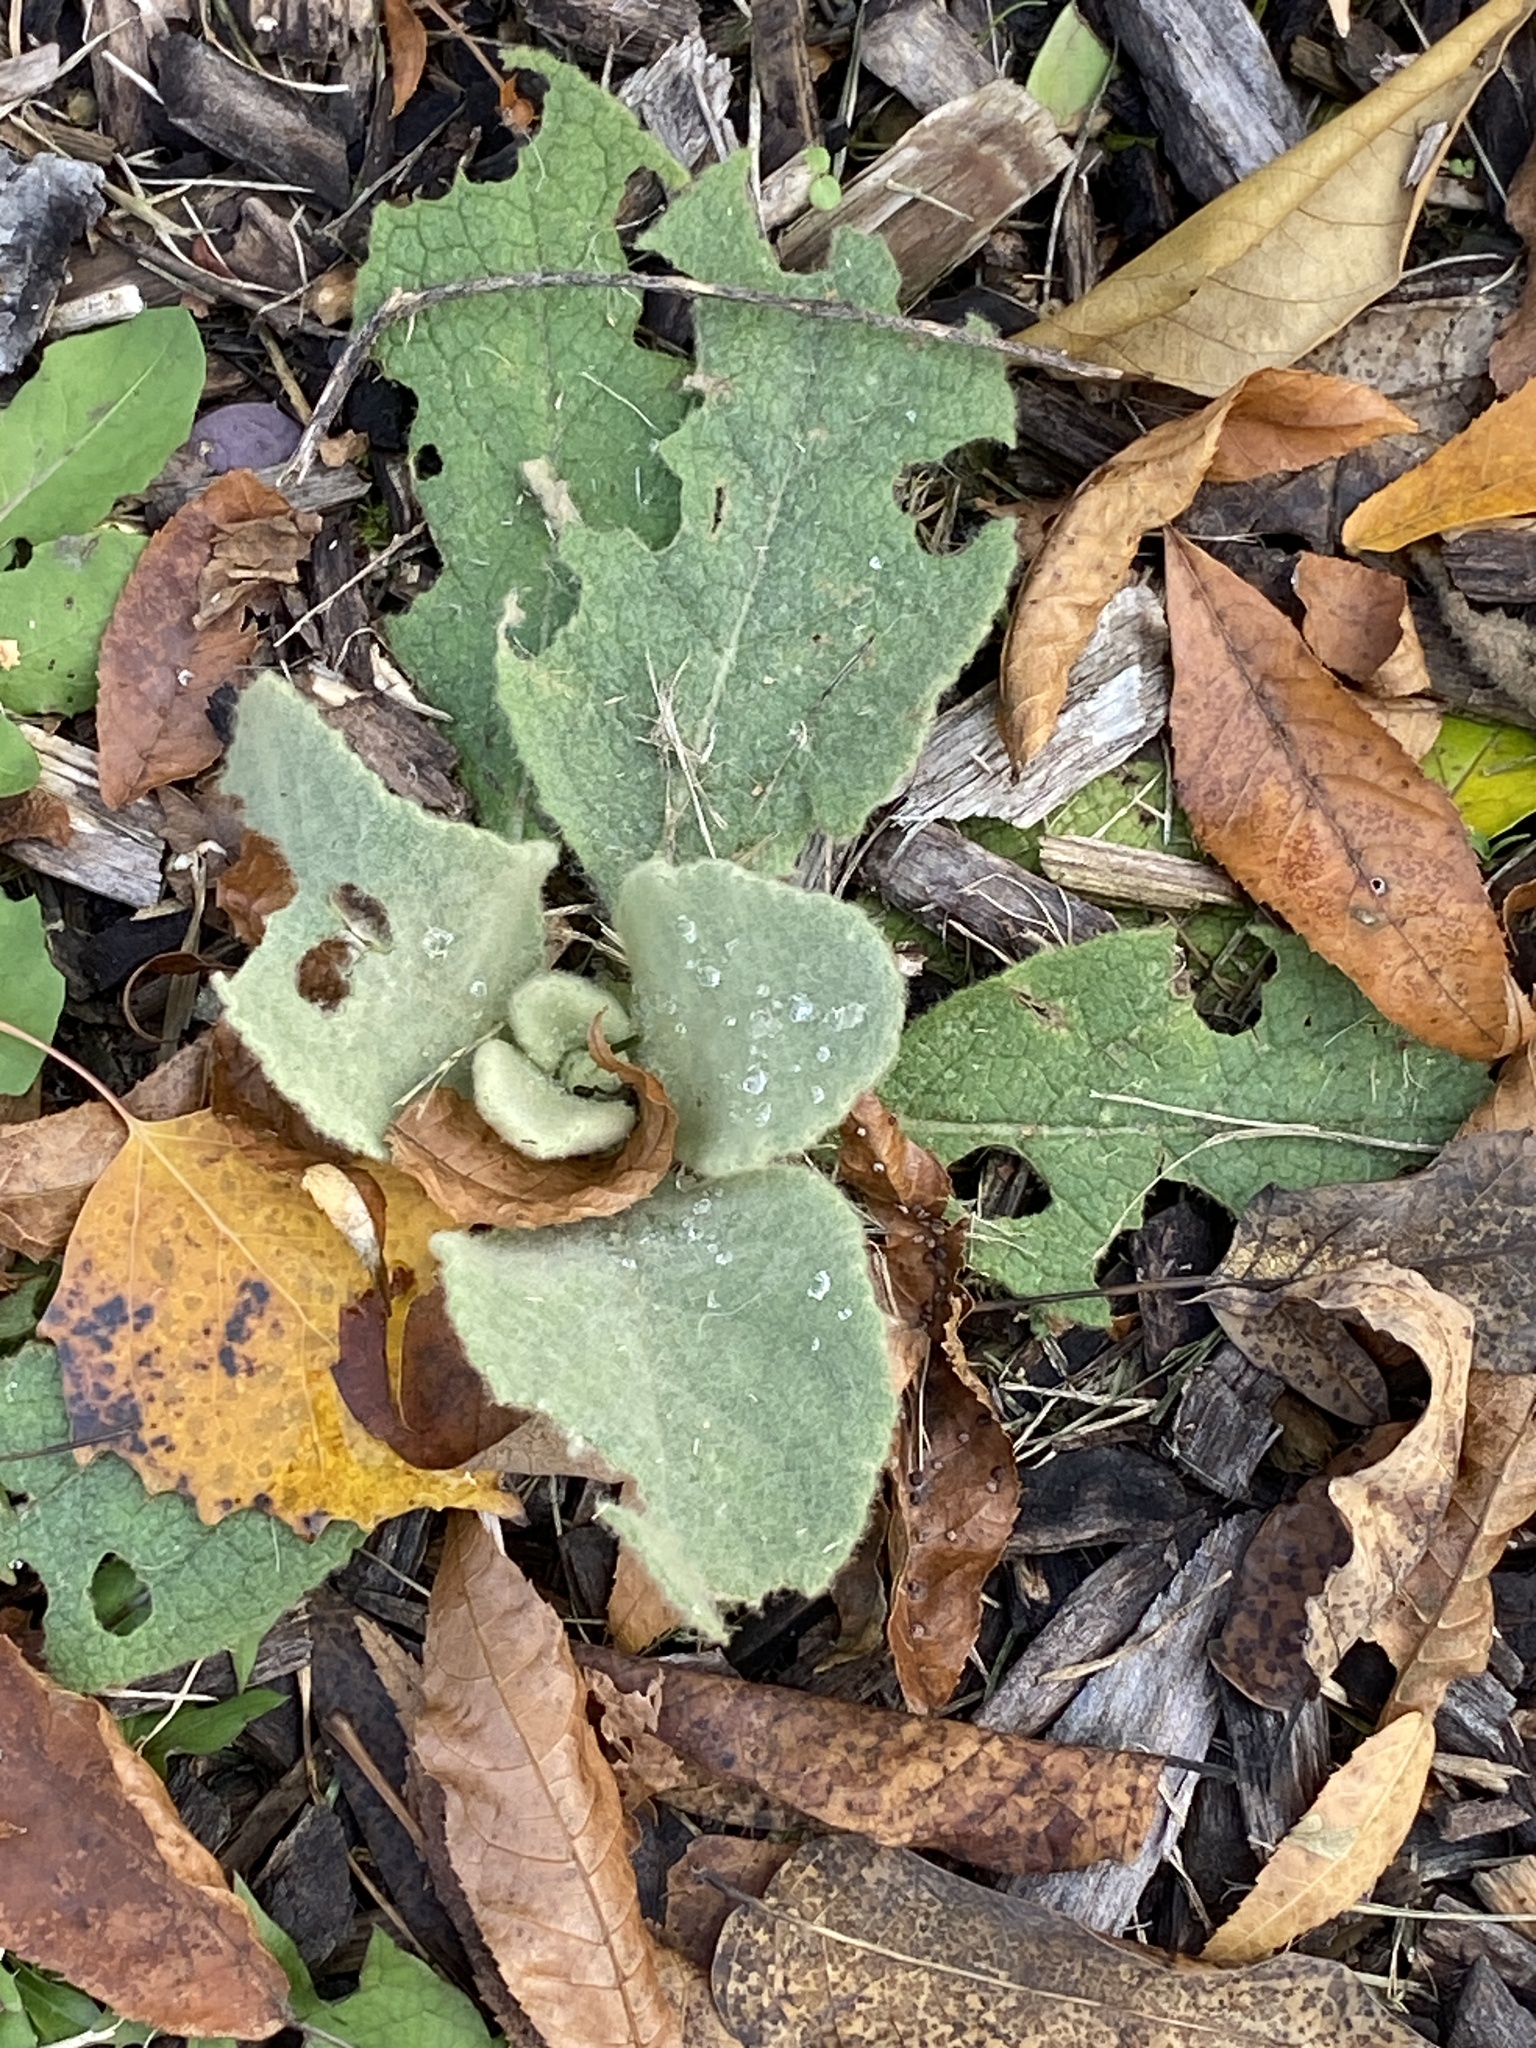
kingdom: Plantae
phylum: Tracheophyta
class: Magnoliopsida
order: Lamiales
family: Scrophulariaceae
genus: Verbascum
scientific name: Verbascum thapsus
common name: Common mullein
